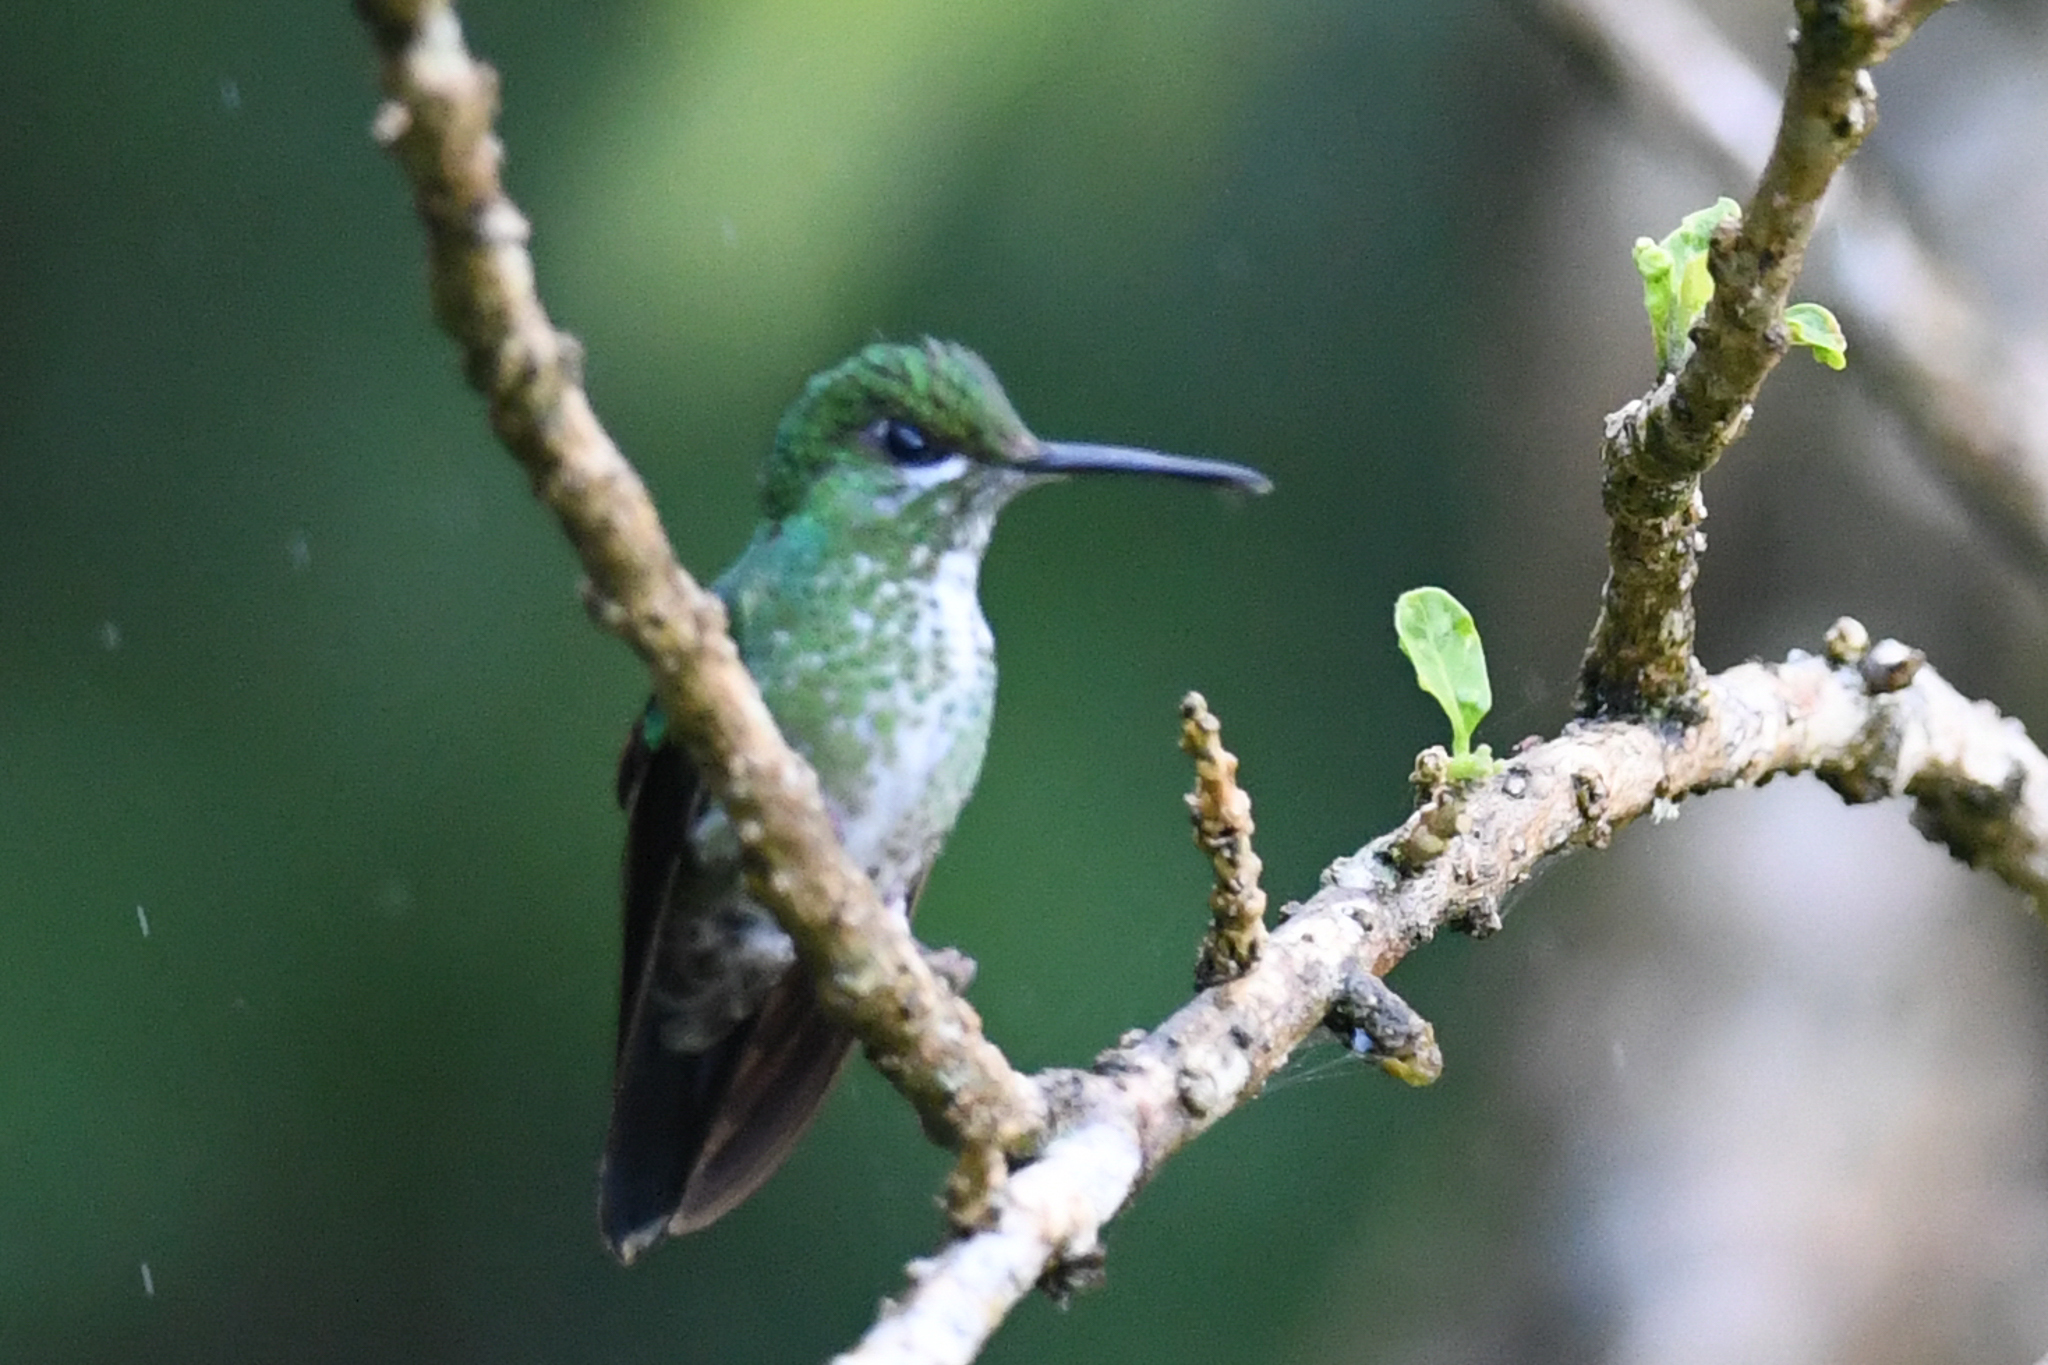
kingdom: Animalia
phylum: Chordata
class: Aves
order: Apodiformes
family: Trochilidae
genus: Heliodoxa
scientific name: Heliodoxa jacula
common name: Green-crowned brilliant
